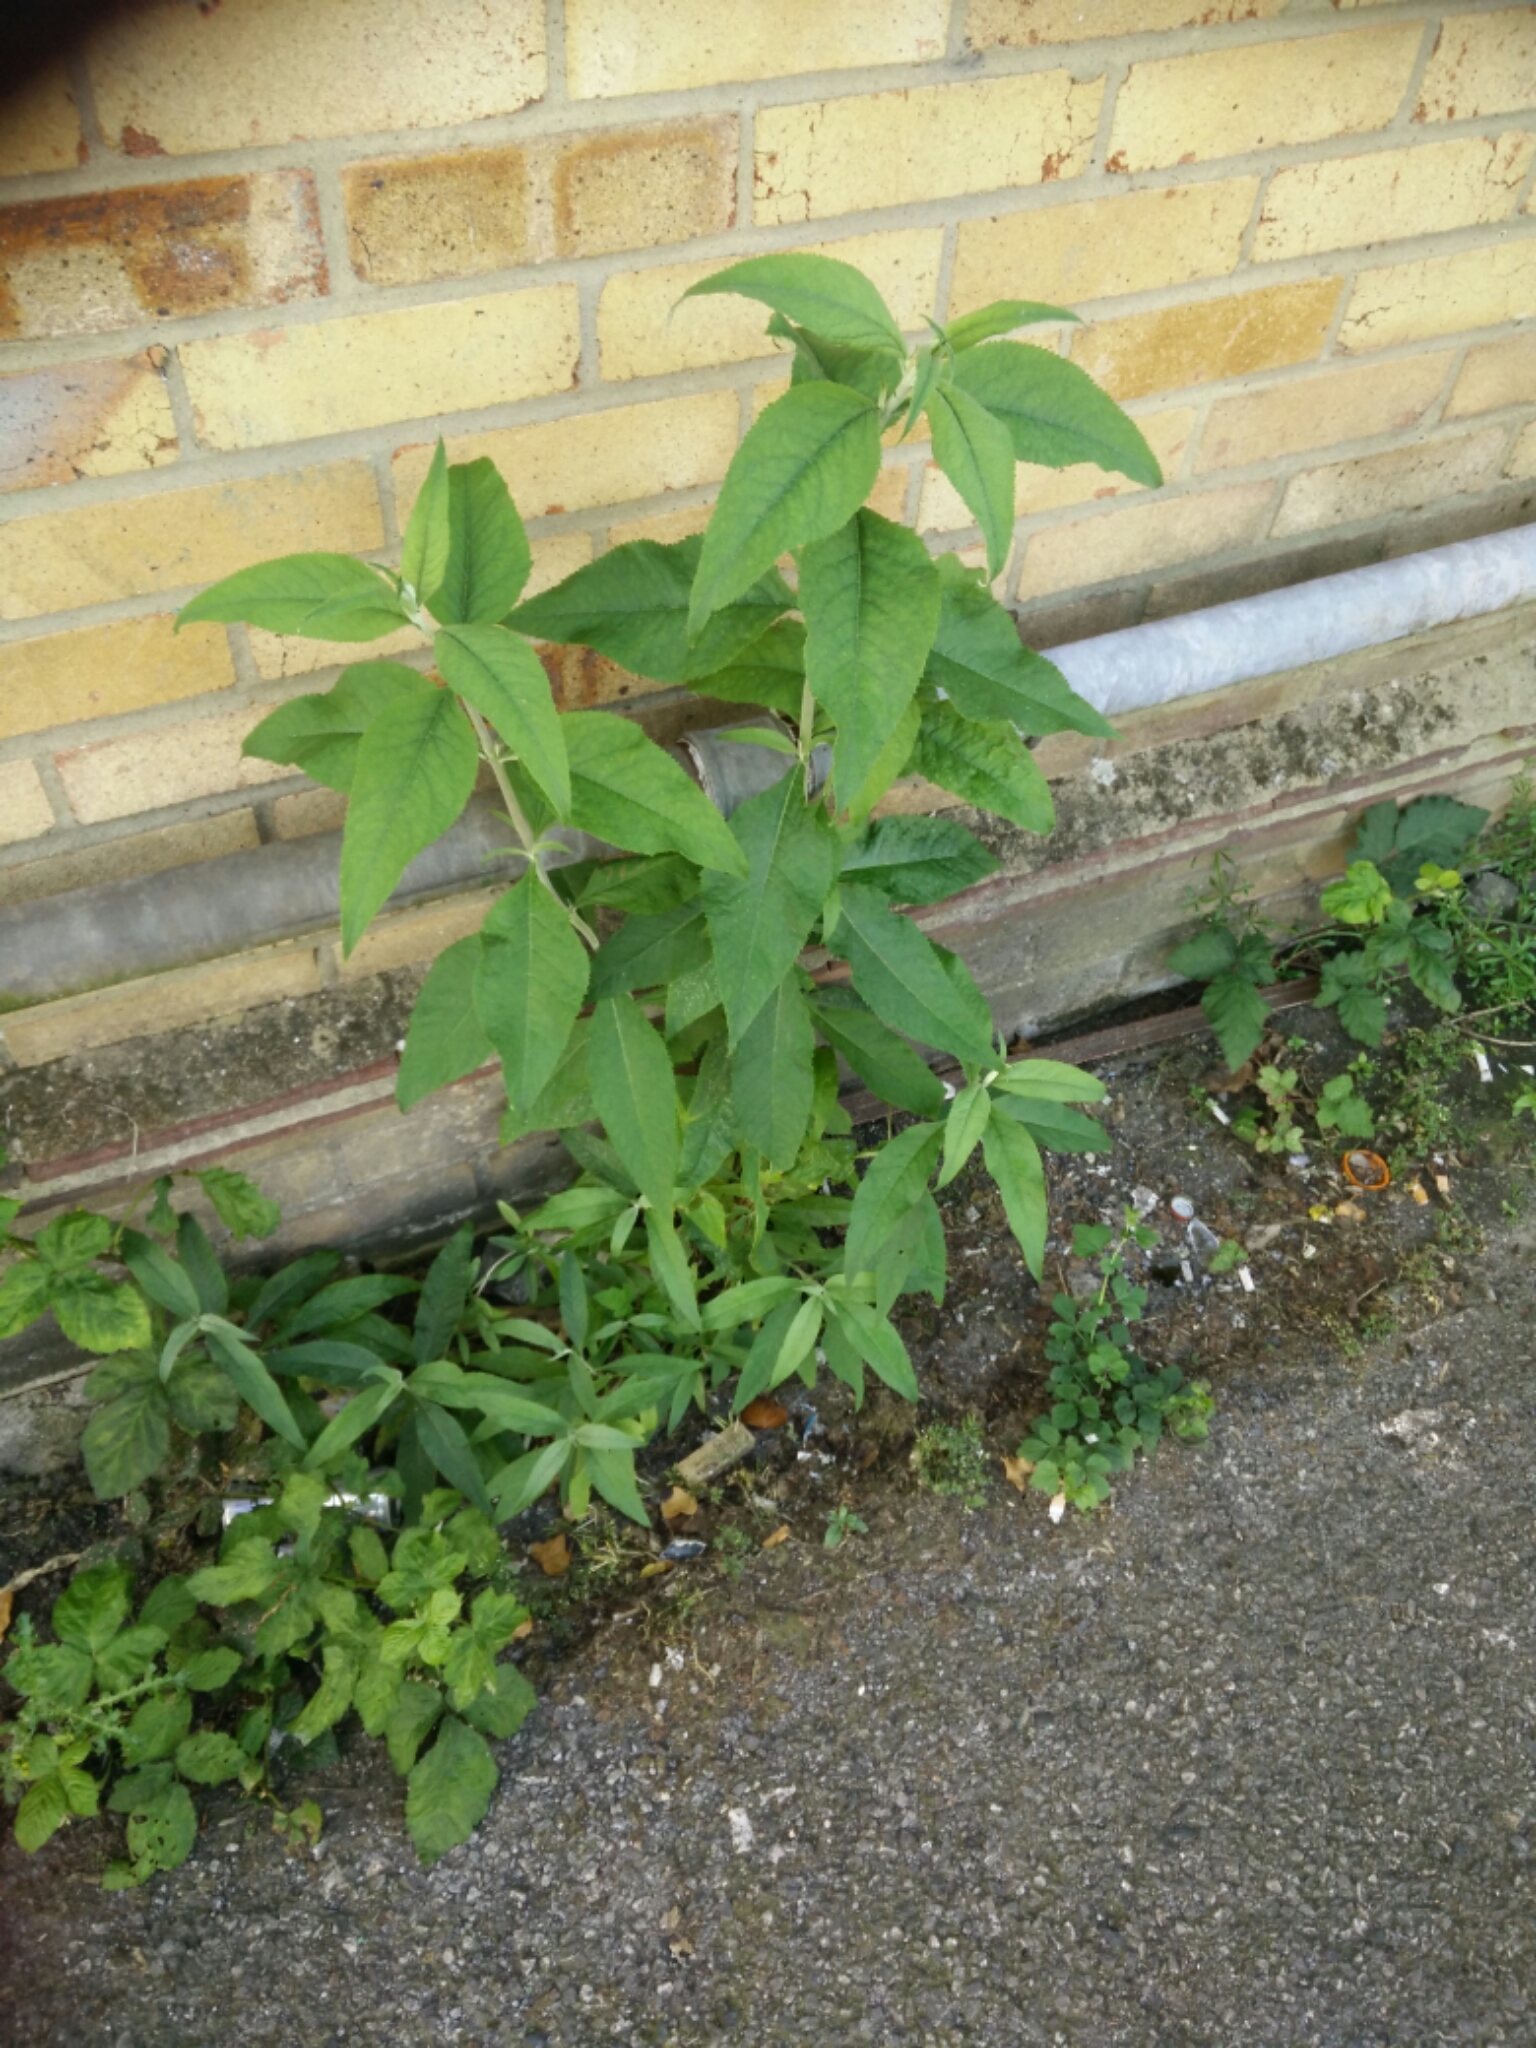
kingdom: Plantae
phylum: Tracheophyta
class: Magnoliopsida
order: Lamiales
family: Scrophulariaceae
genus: Buddleja
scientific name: Buddleja davidii
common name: Butterfly-bush
